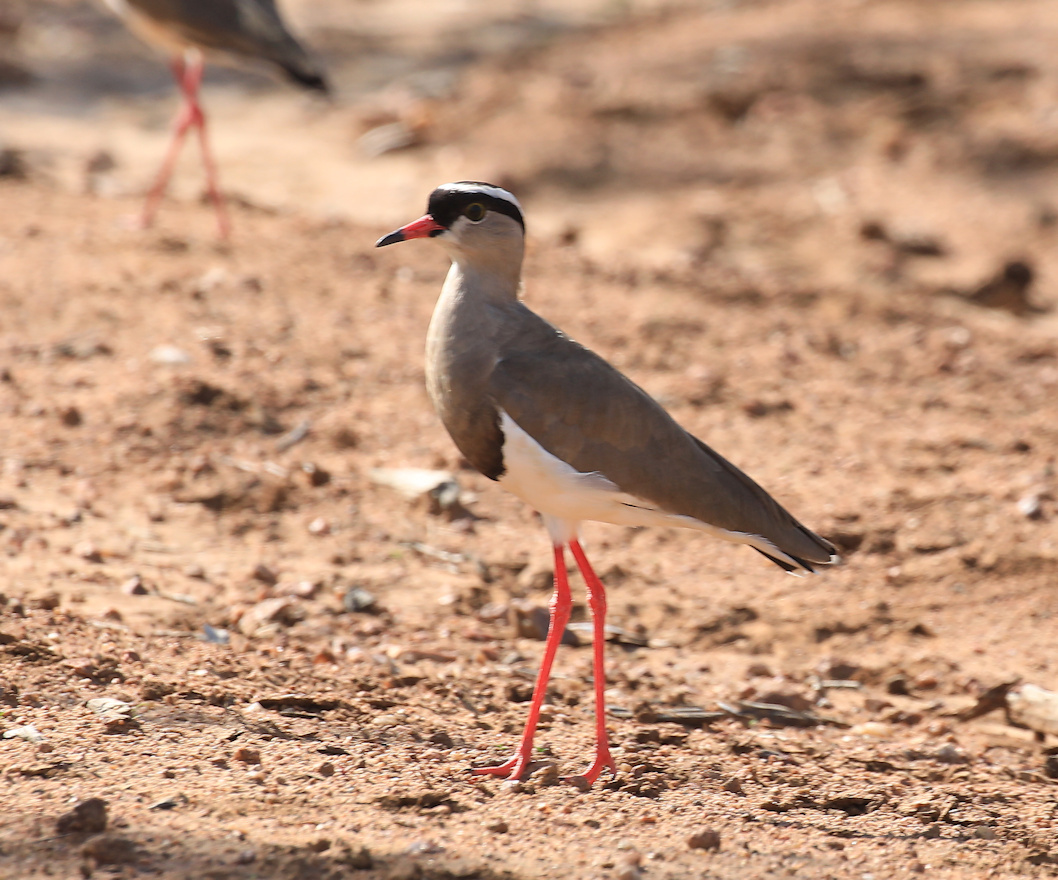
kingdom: Animalia
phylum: Chordata
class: Aves
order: Charadriiformes
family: Charadriidae
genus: Vanellus
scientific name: Vanellus coronatus
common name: Crowned lapwing
